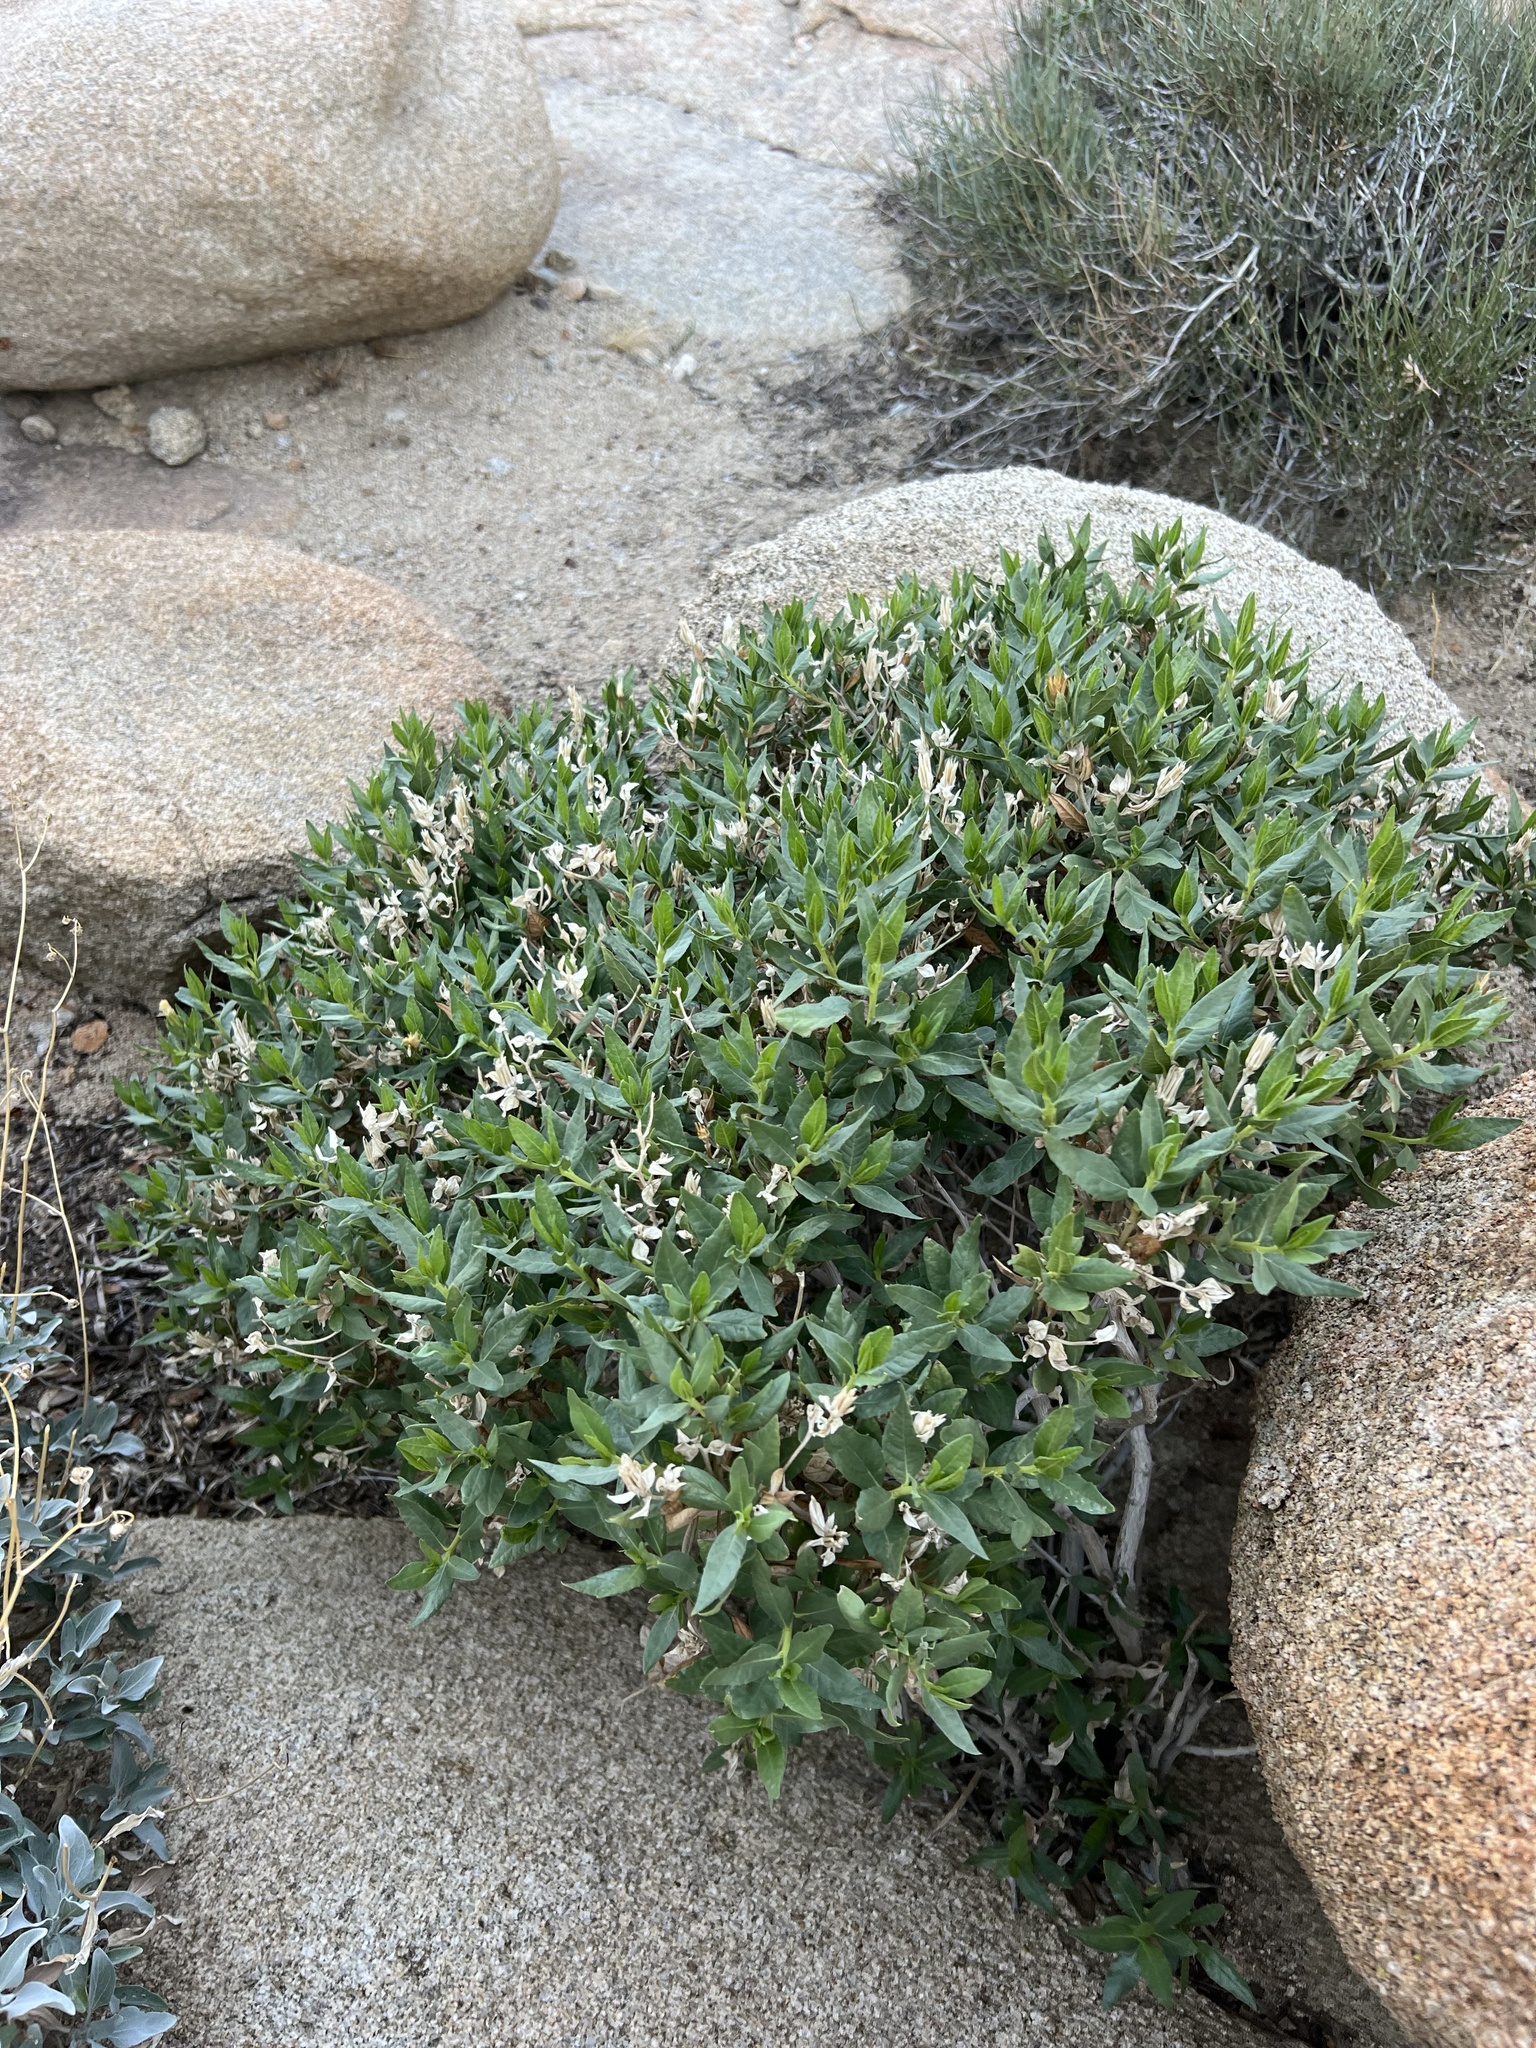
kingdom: Plantae
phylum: Tracheophyta
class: Magnoliopsida
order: Asterales
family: Asteraceae
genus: Trixis
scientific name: Trixis californica
